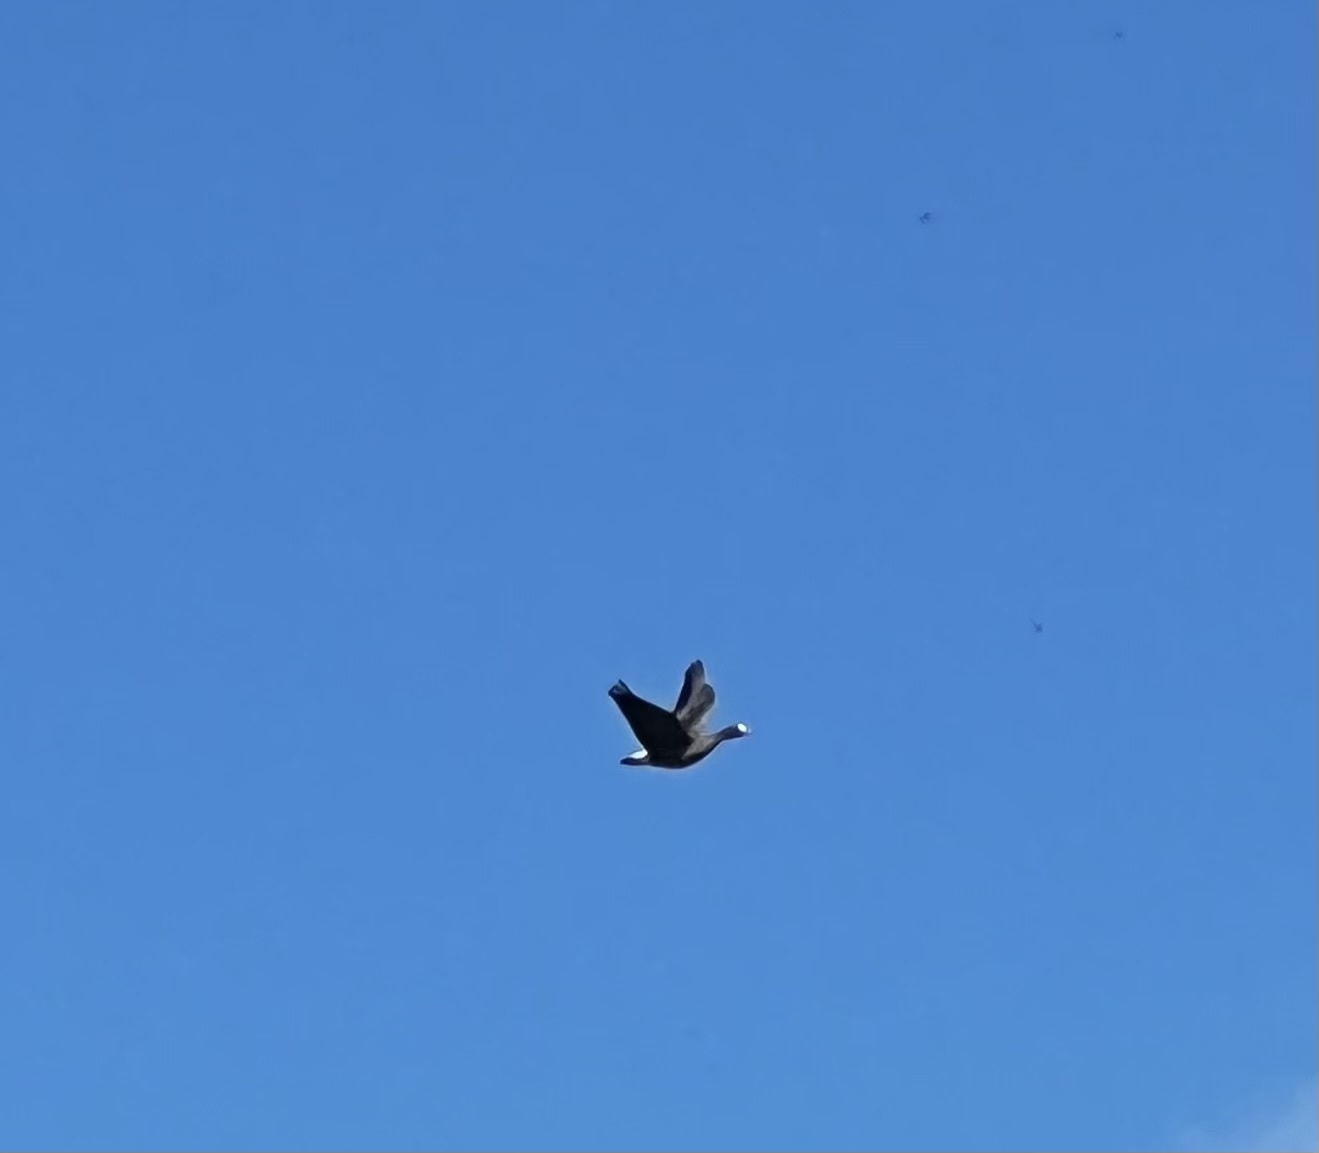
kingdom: Animalia
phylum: Chordata
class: Aves
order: Anseriformes
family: Anatidae
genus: Anser
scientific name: Anser albifrons
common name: Greater white-fronted goose
